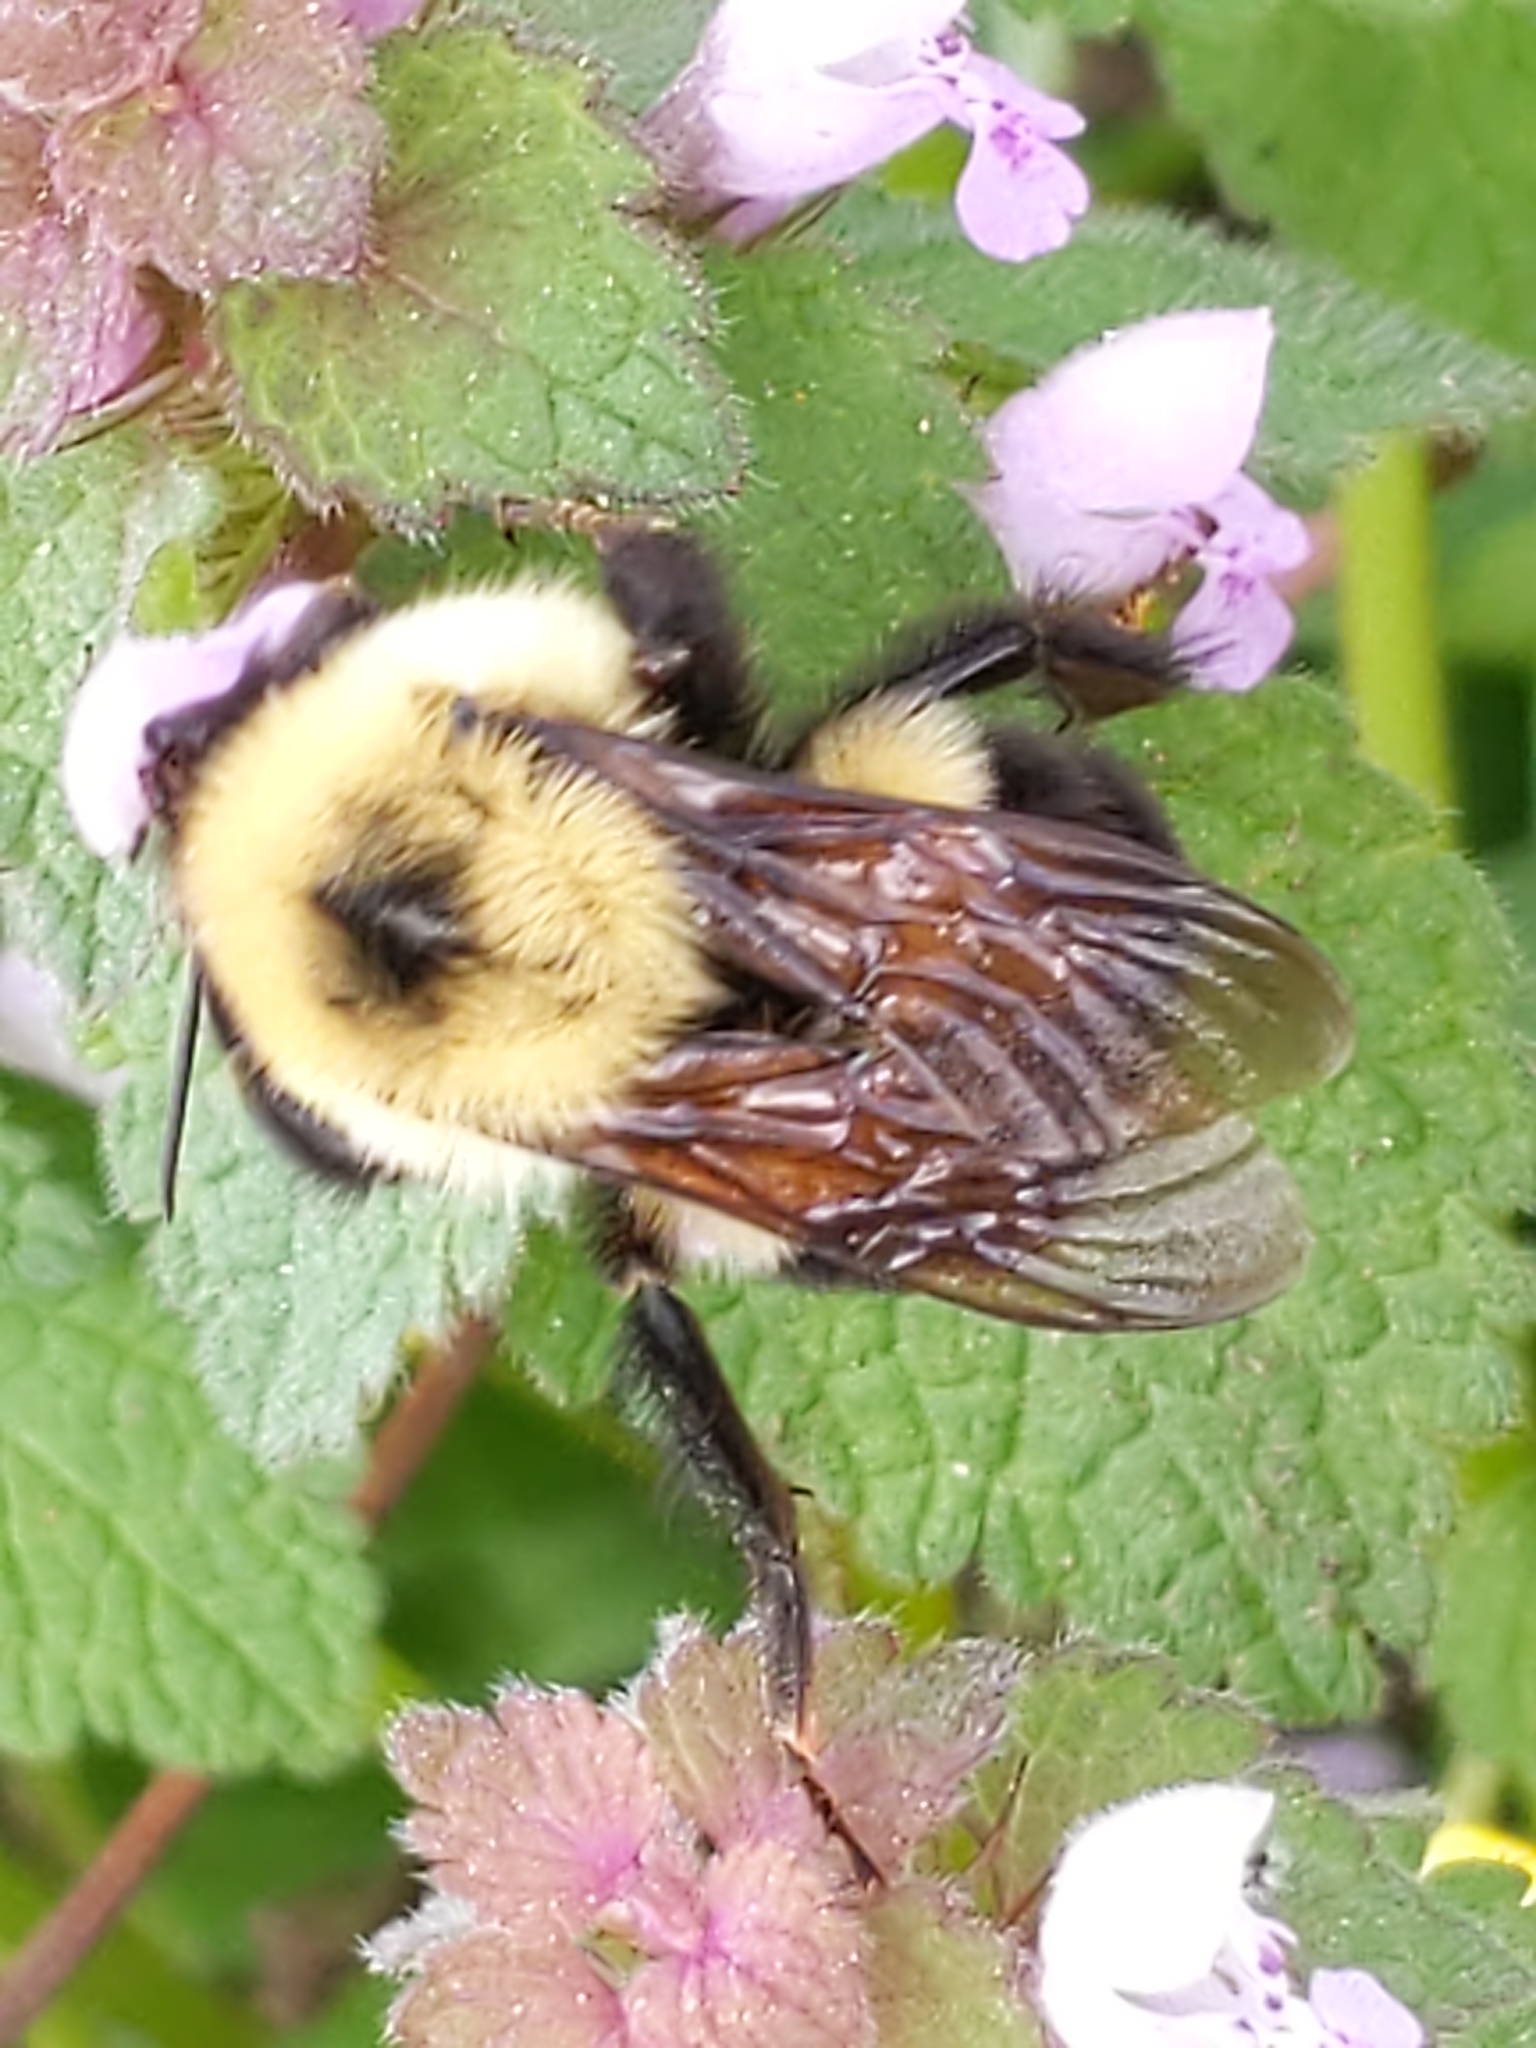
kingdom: Animalia
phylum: Arthropoda
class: Insecta
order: Hymenoptera
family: Apidae
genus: Bombus
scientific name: Bombus bimaculatus
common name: Two-spotted bumble bee
